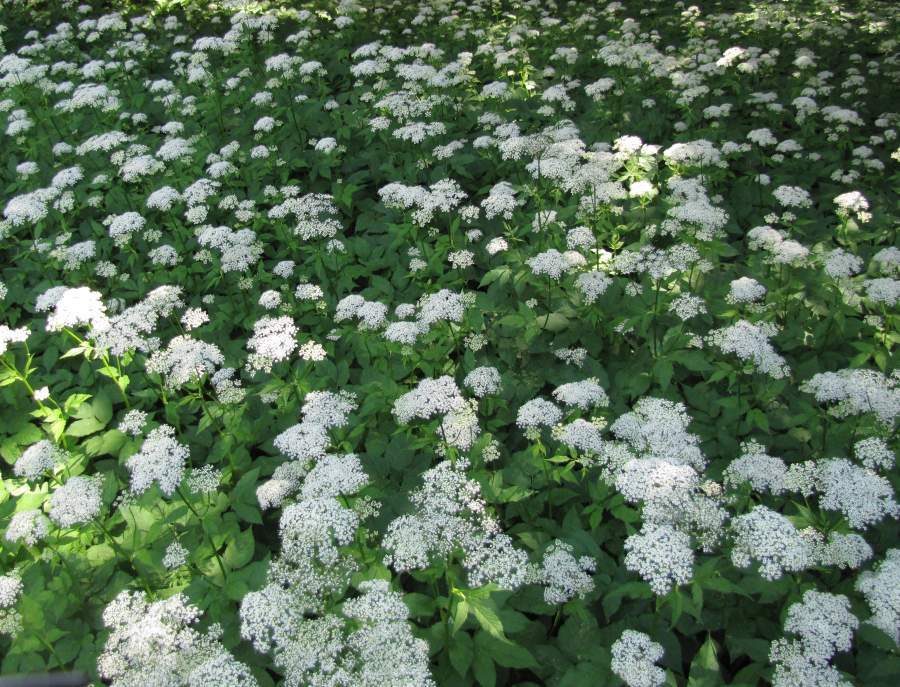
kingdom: Plantae
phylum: Tracheophyta
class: Magnoliopsida
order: Apiales
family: Apiaceae
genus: Aegopodium
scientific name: Aegopodium podagraria
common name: Ground-elder
